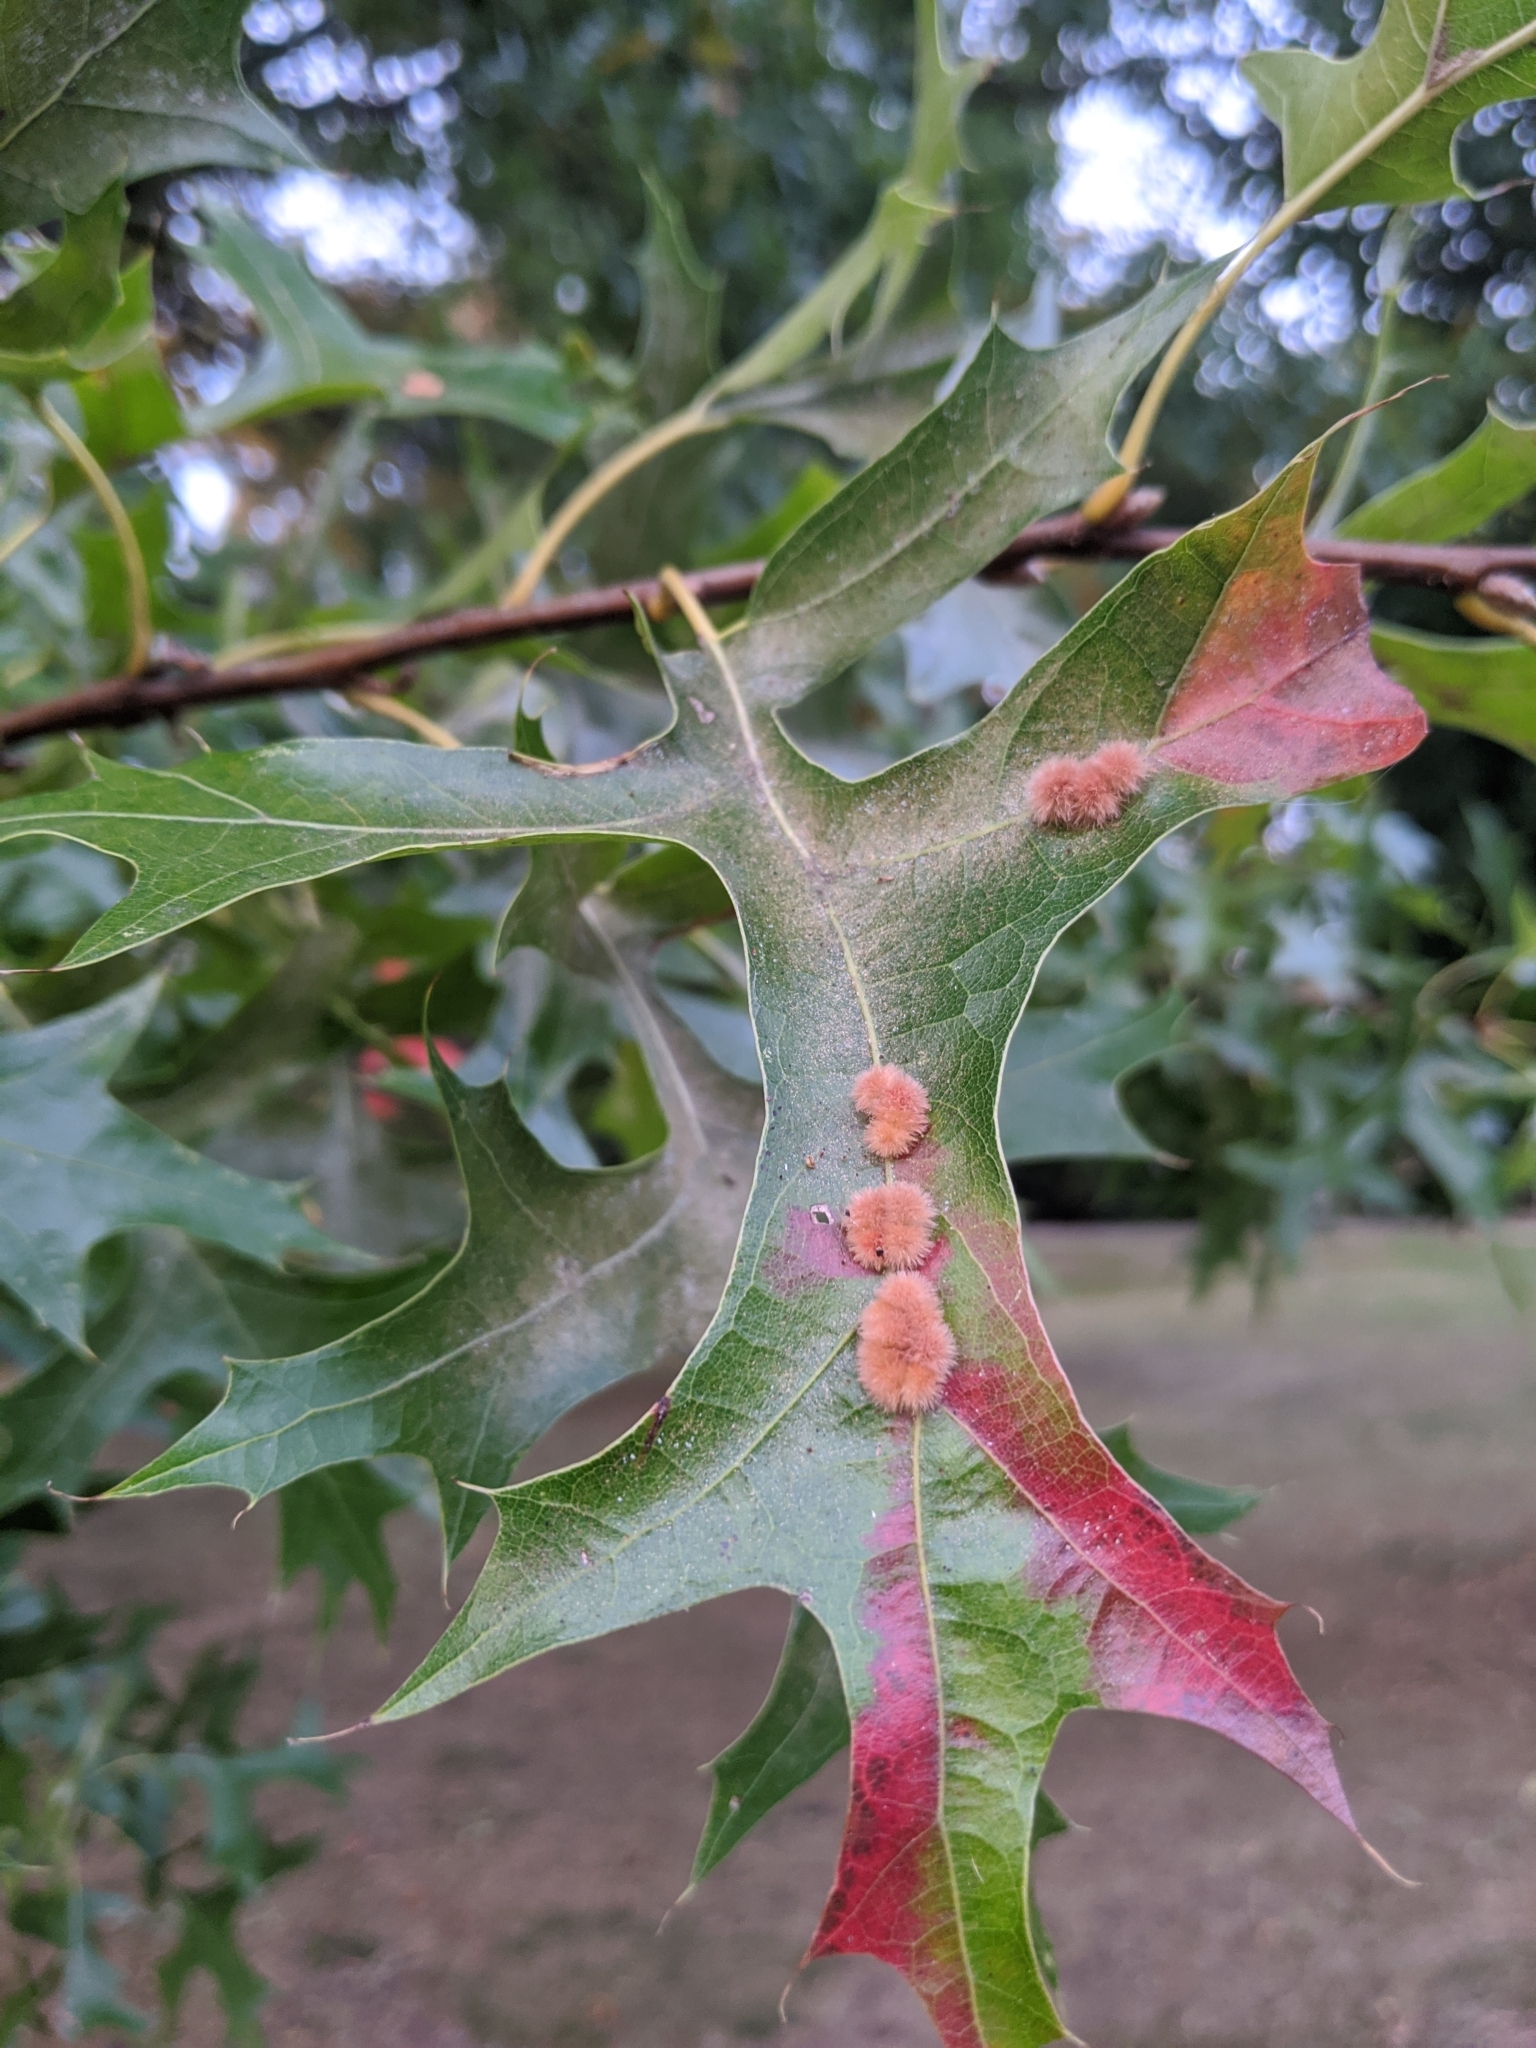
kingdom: Animalia
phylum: Arthropoda
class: Insecta
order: Hymenoptera
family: Cynipidae
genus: Callirhytis
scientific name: Callirhytis
